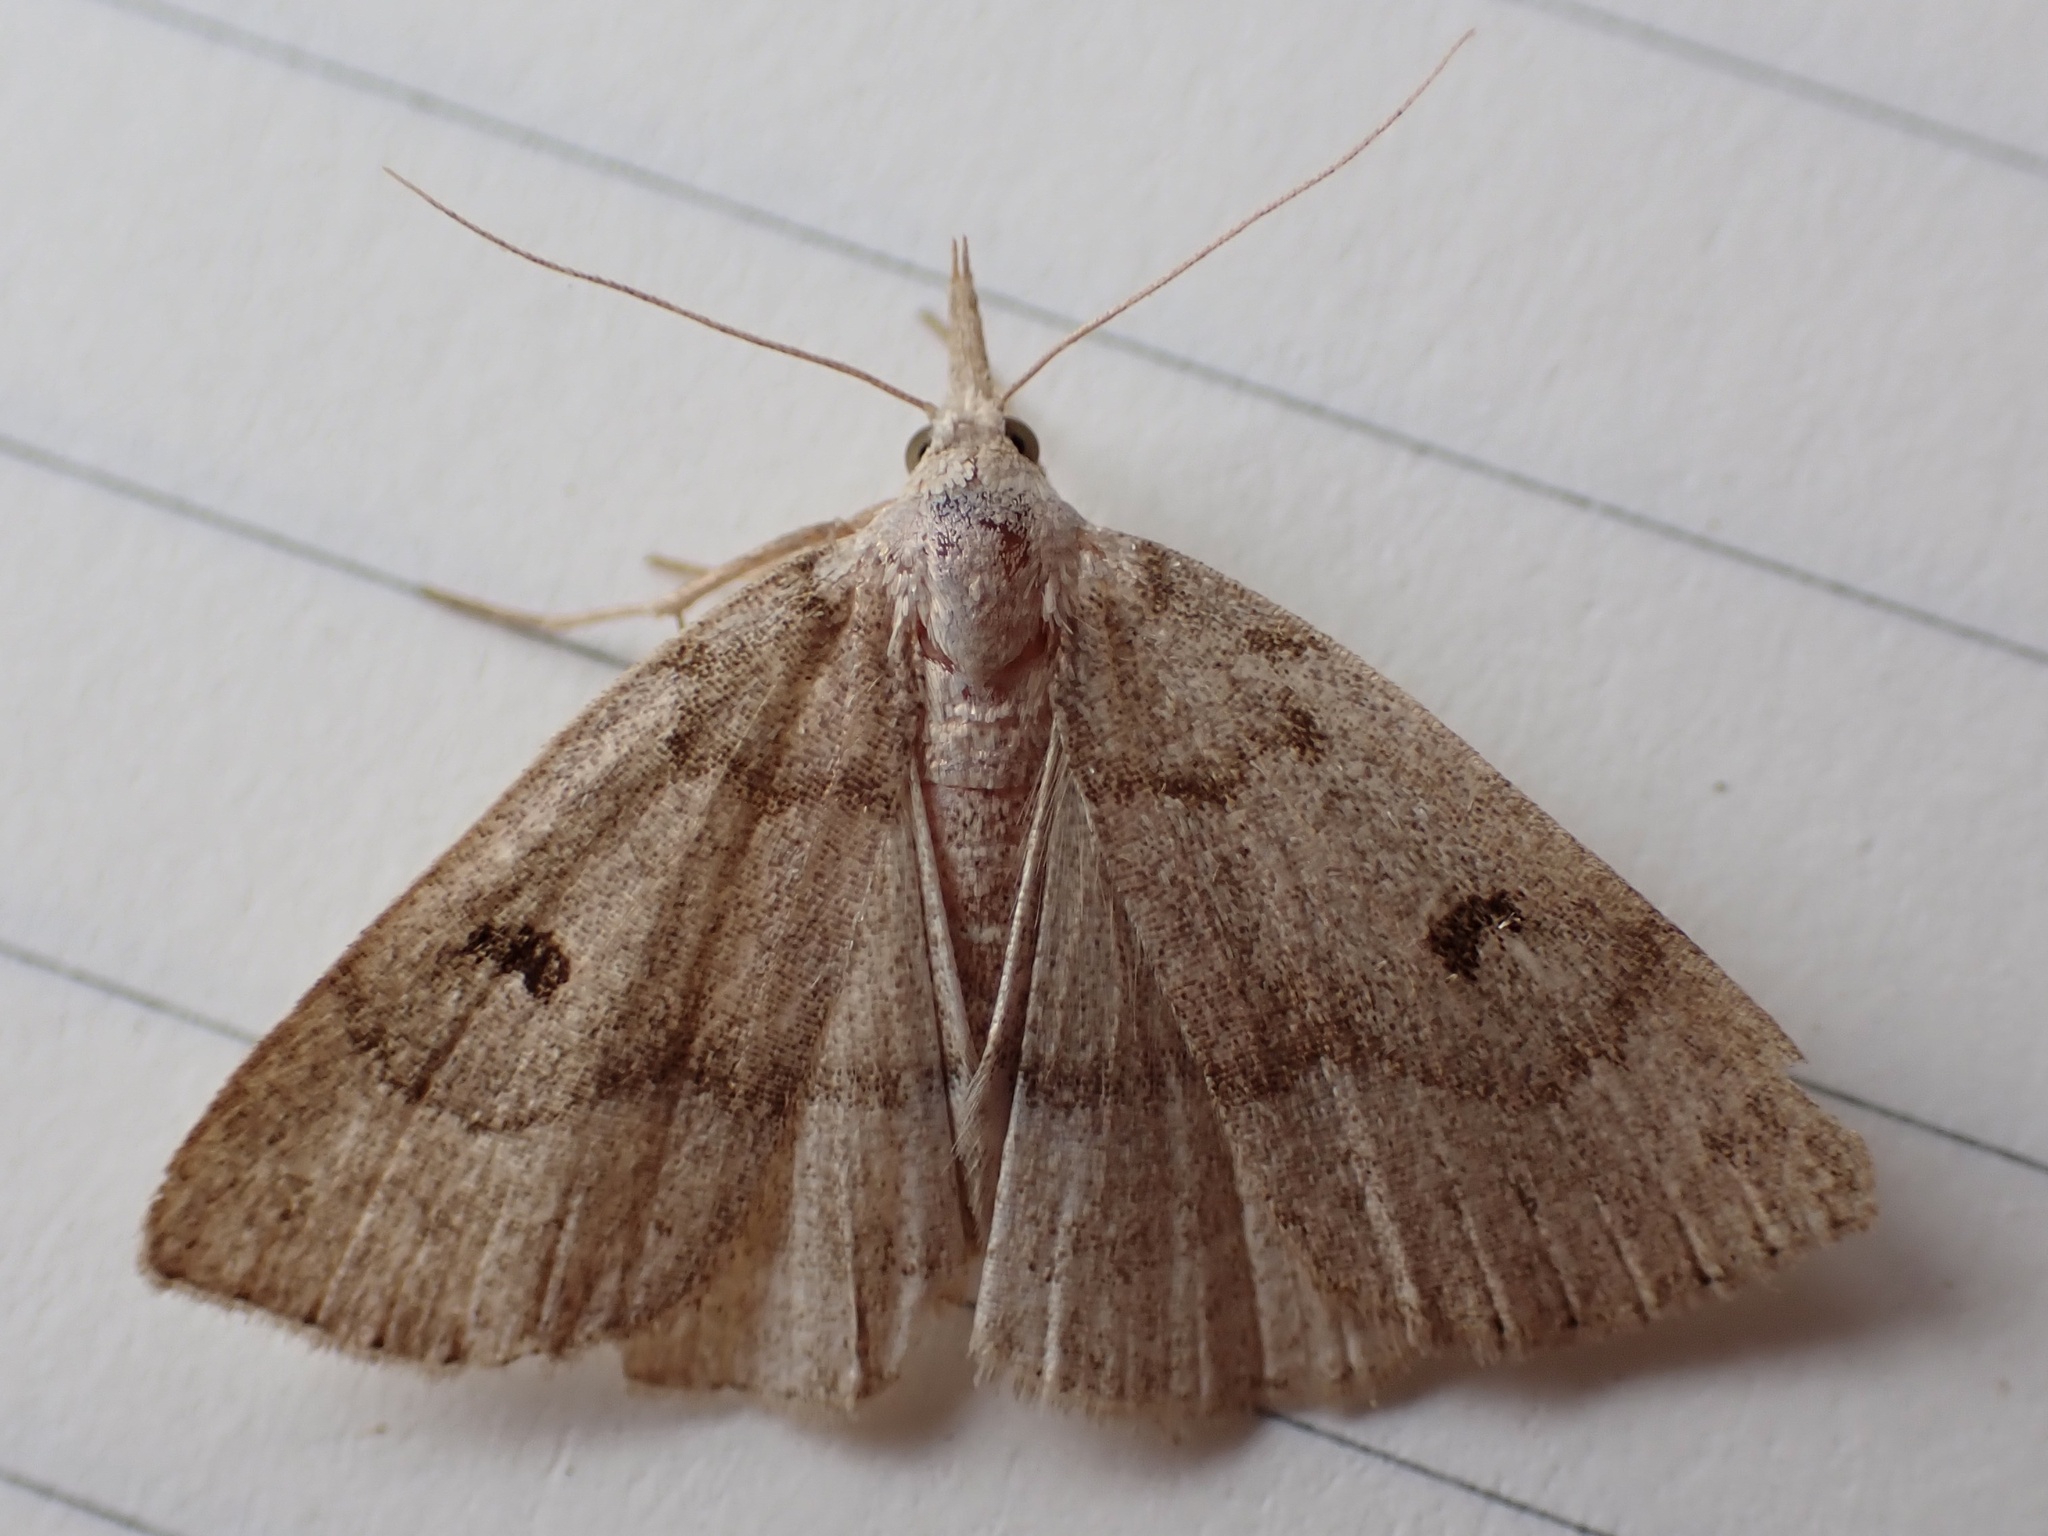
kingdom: Animalia
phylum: Arthropoda
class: Insecta
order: Lepidoptera
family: Erebidae
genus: Macrochilo
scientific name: Macrochilo morbidalis
